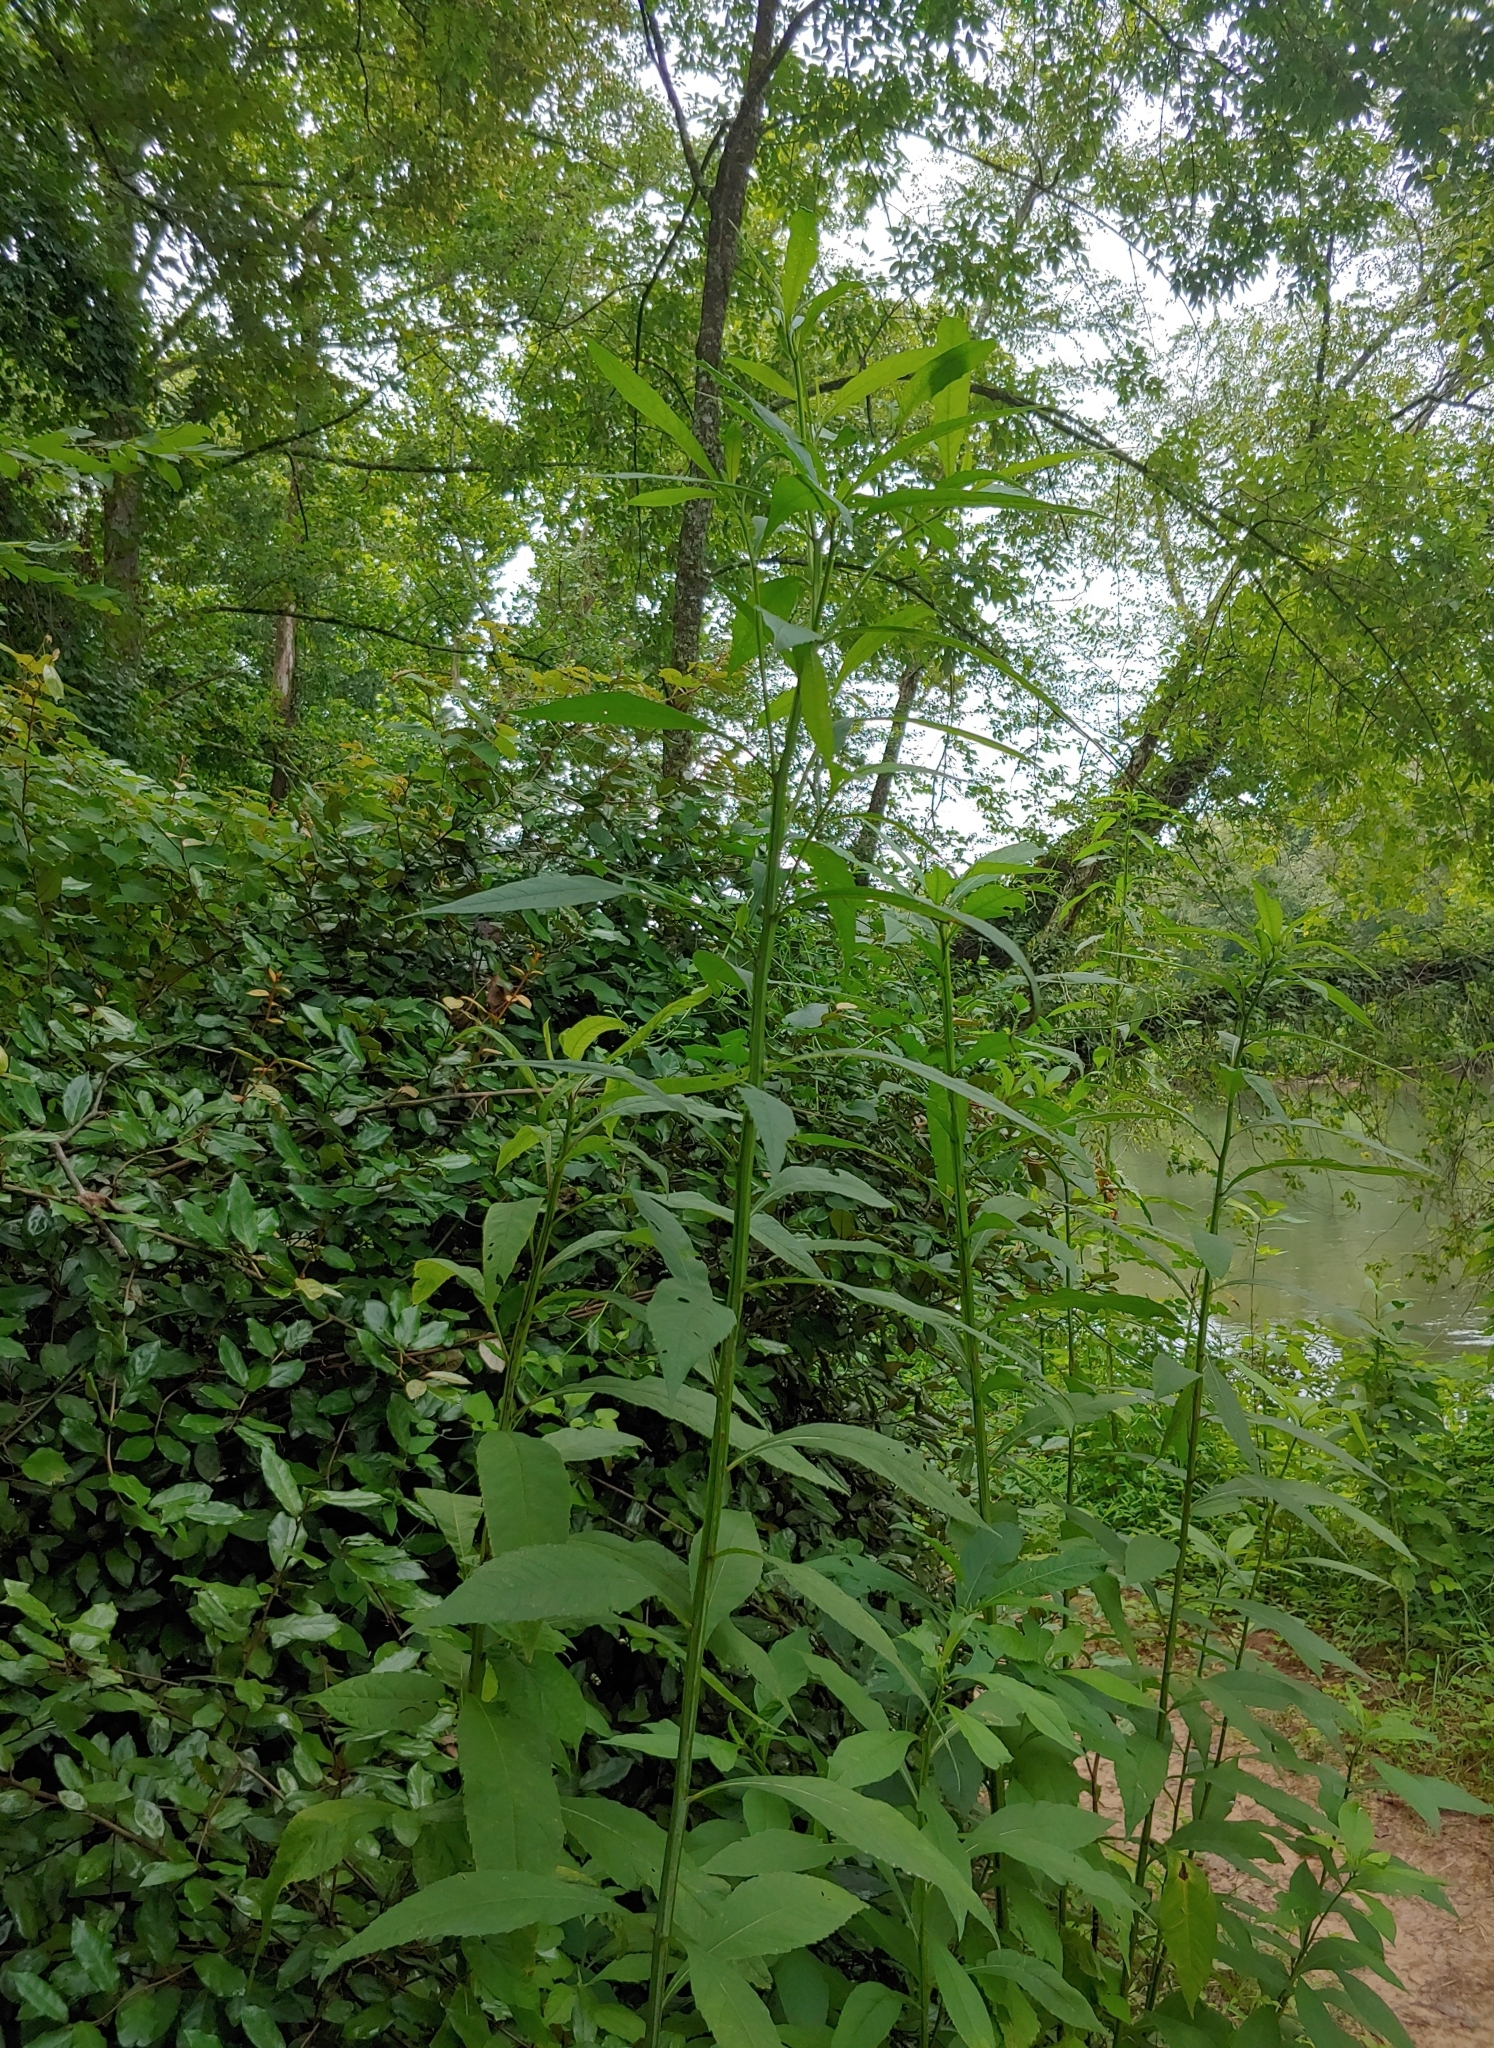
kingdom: Plantae
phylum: Tracheophyta
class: Magnoliopsida
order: Asterales
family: Asteraceae
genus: Verbesina
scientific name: Verbesina alternifolia
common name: Wingstem
